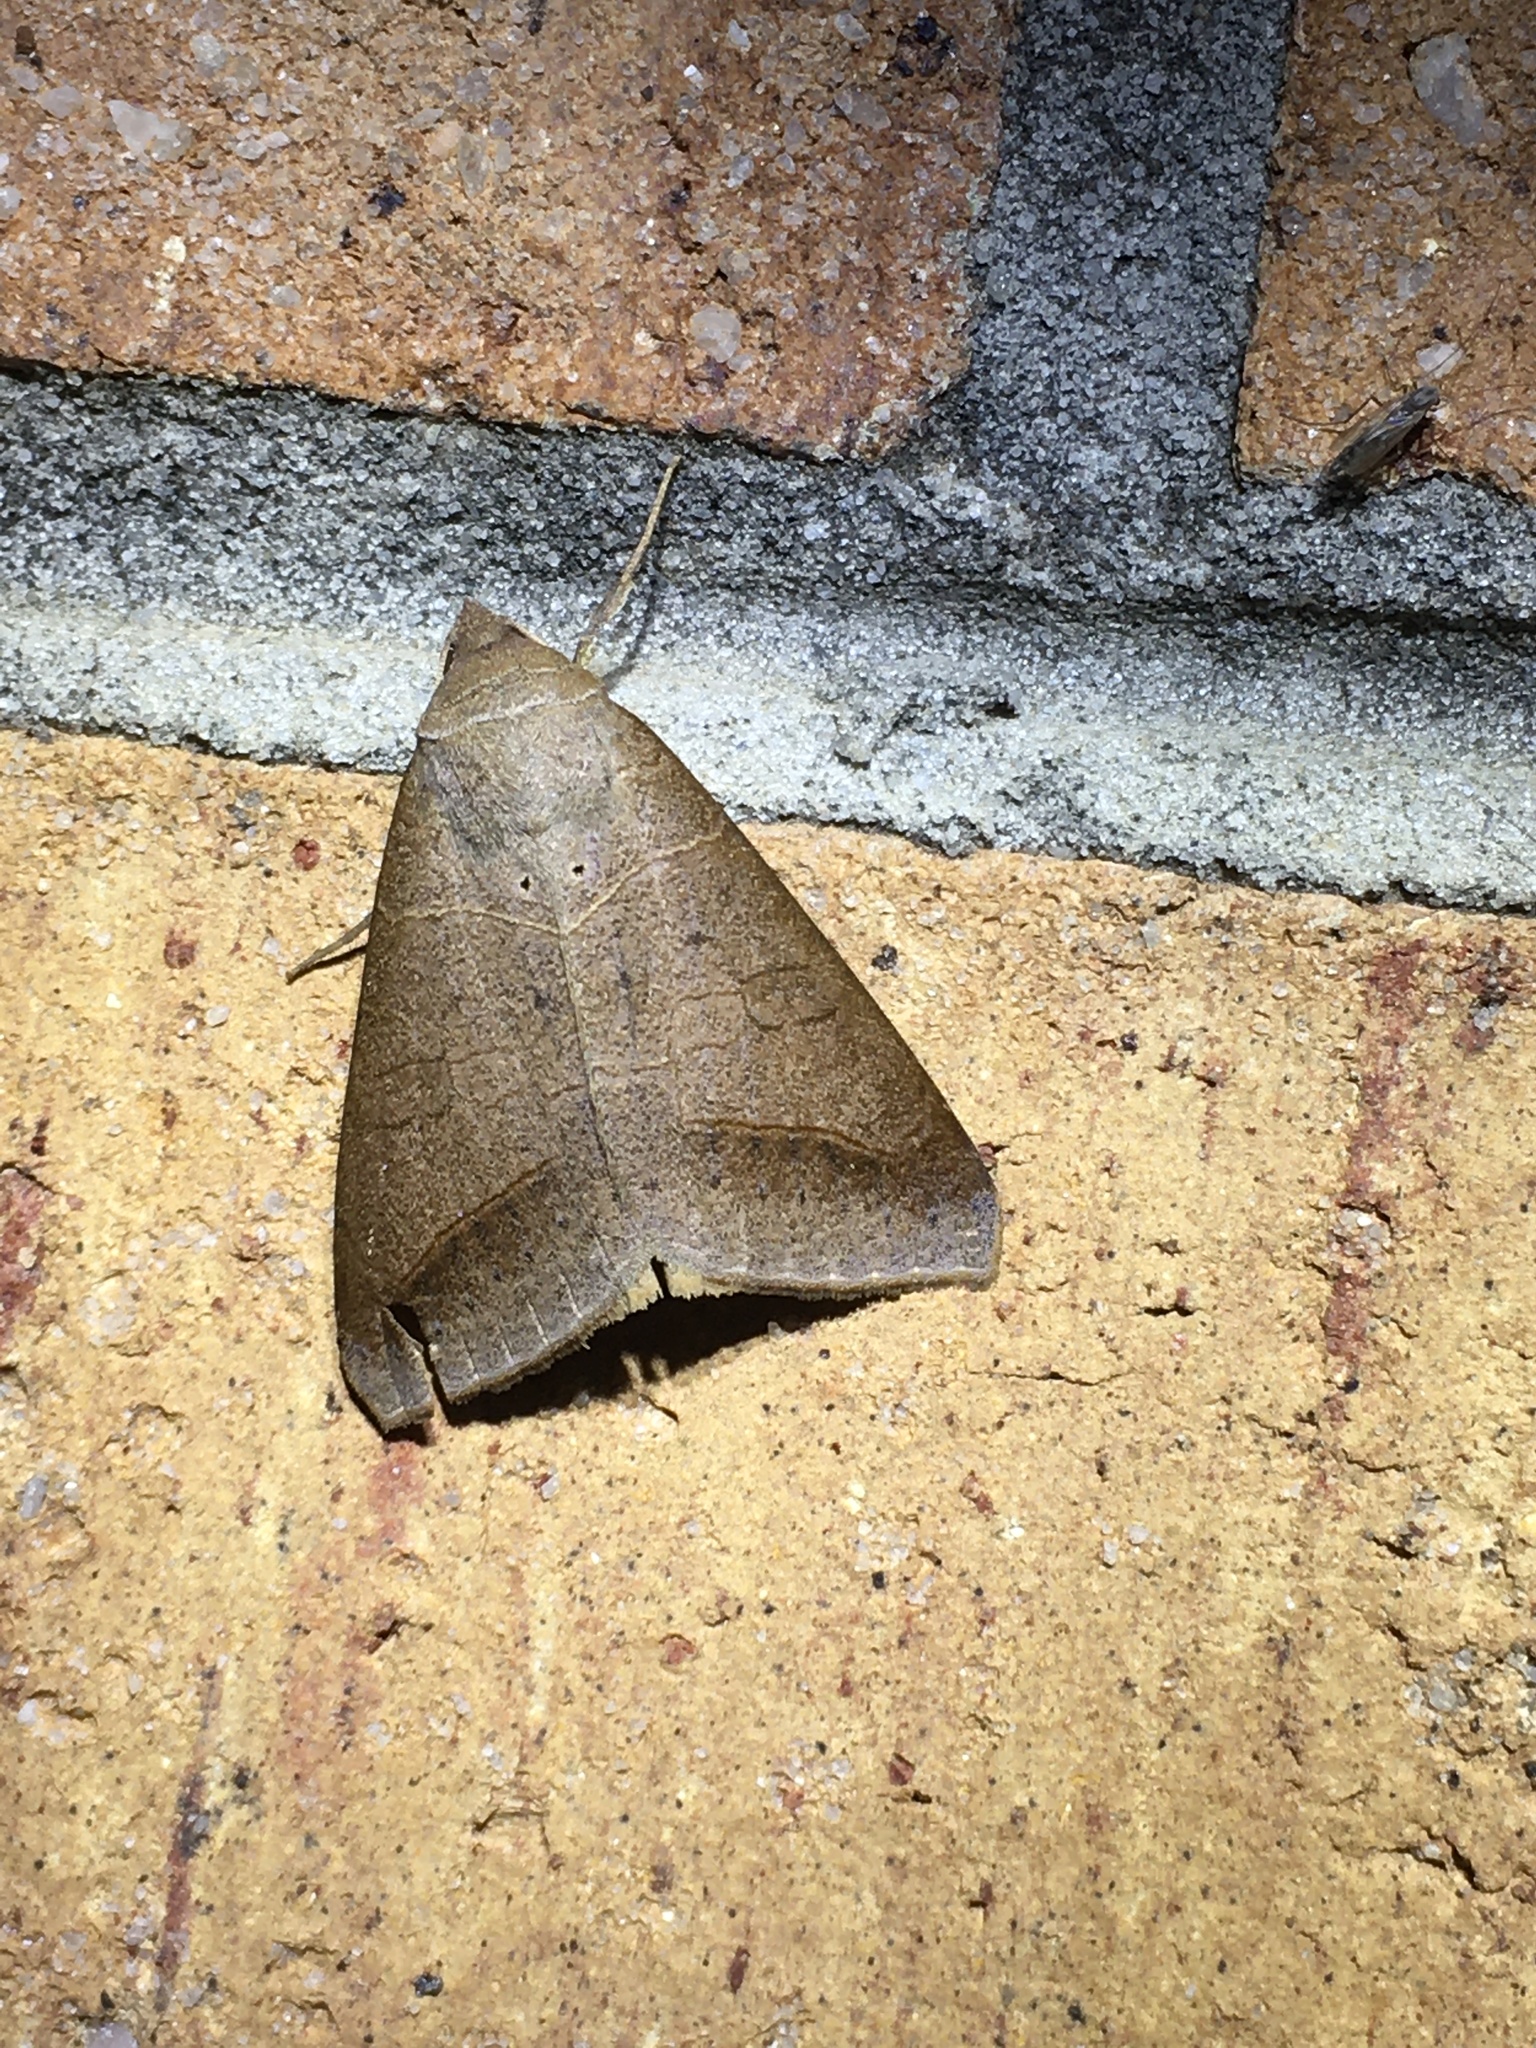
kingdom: Animalia
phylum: Arthropoda
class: Insecta
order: Lepidoptera
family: Erebidae
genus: Mocis
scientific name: Mocis marcida
